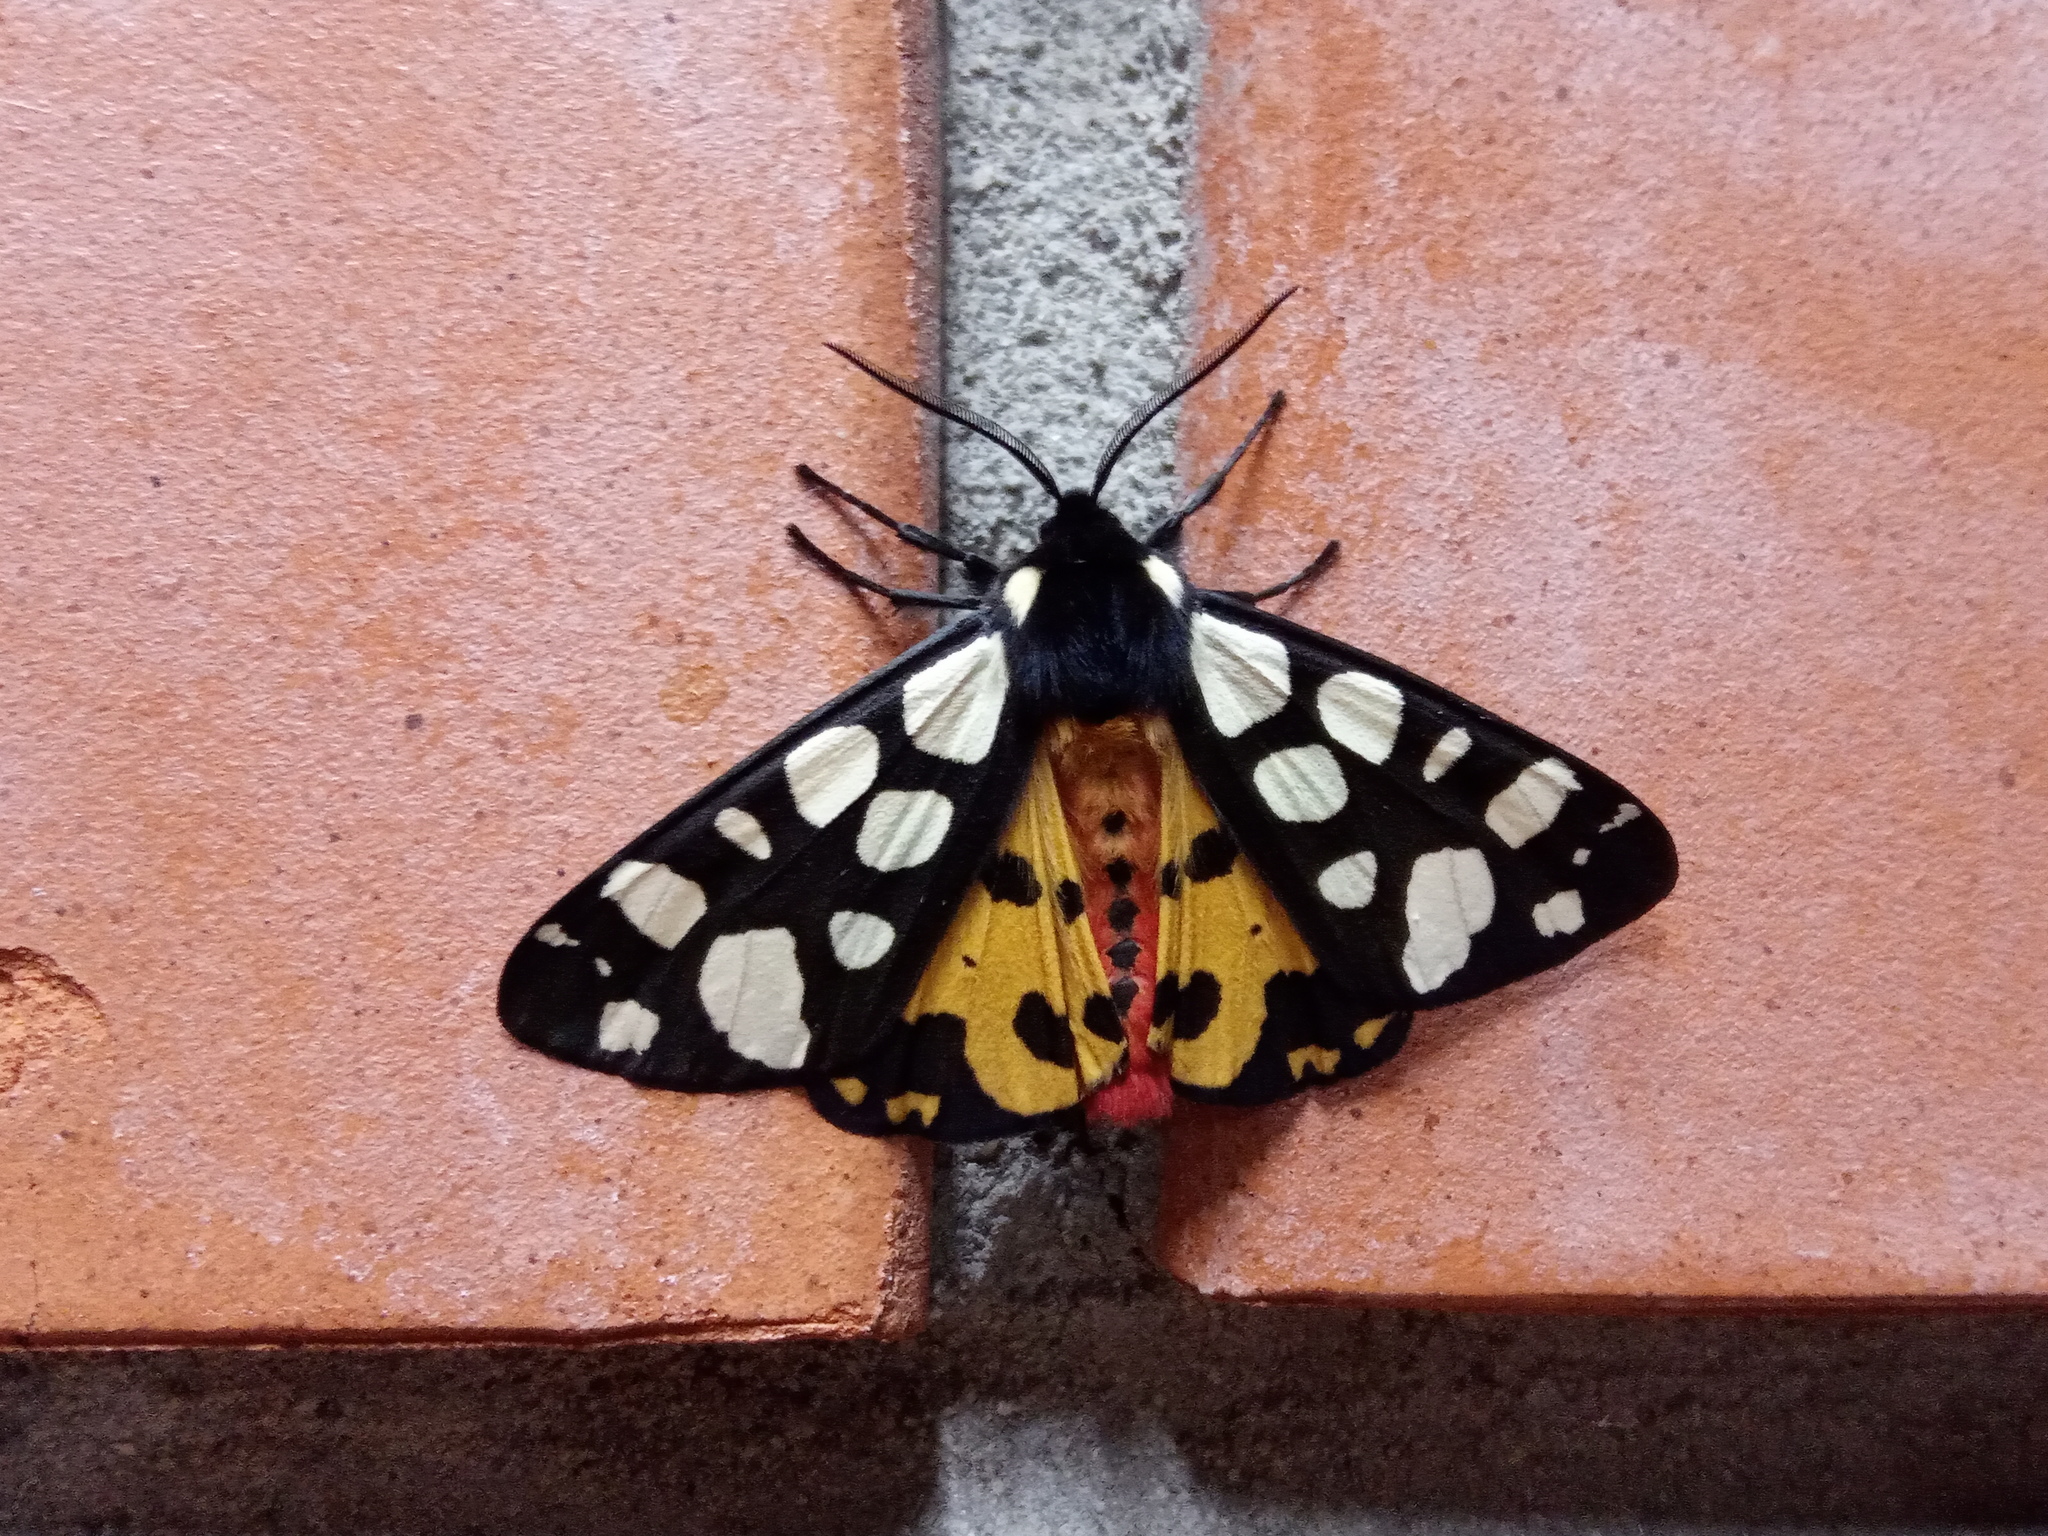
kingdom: Animalia
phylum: Arthropoda
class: Insecta
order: Lepidoptera
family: Erebidae
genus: Epicallia
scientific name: Epicallia villica
